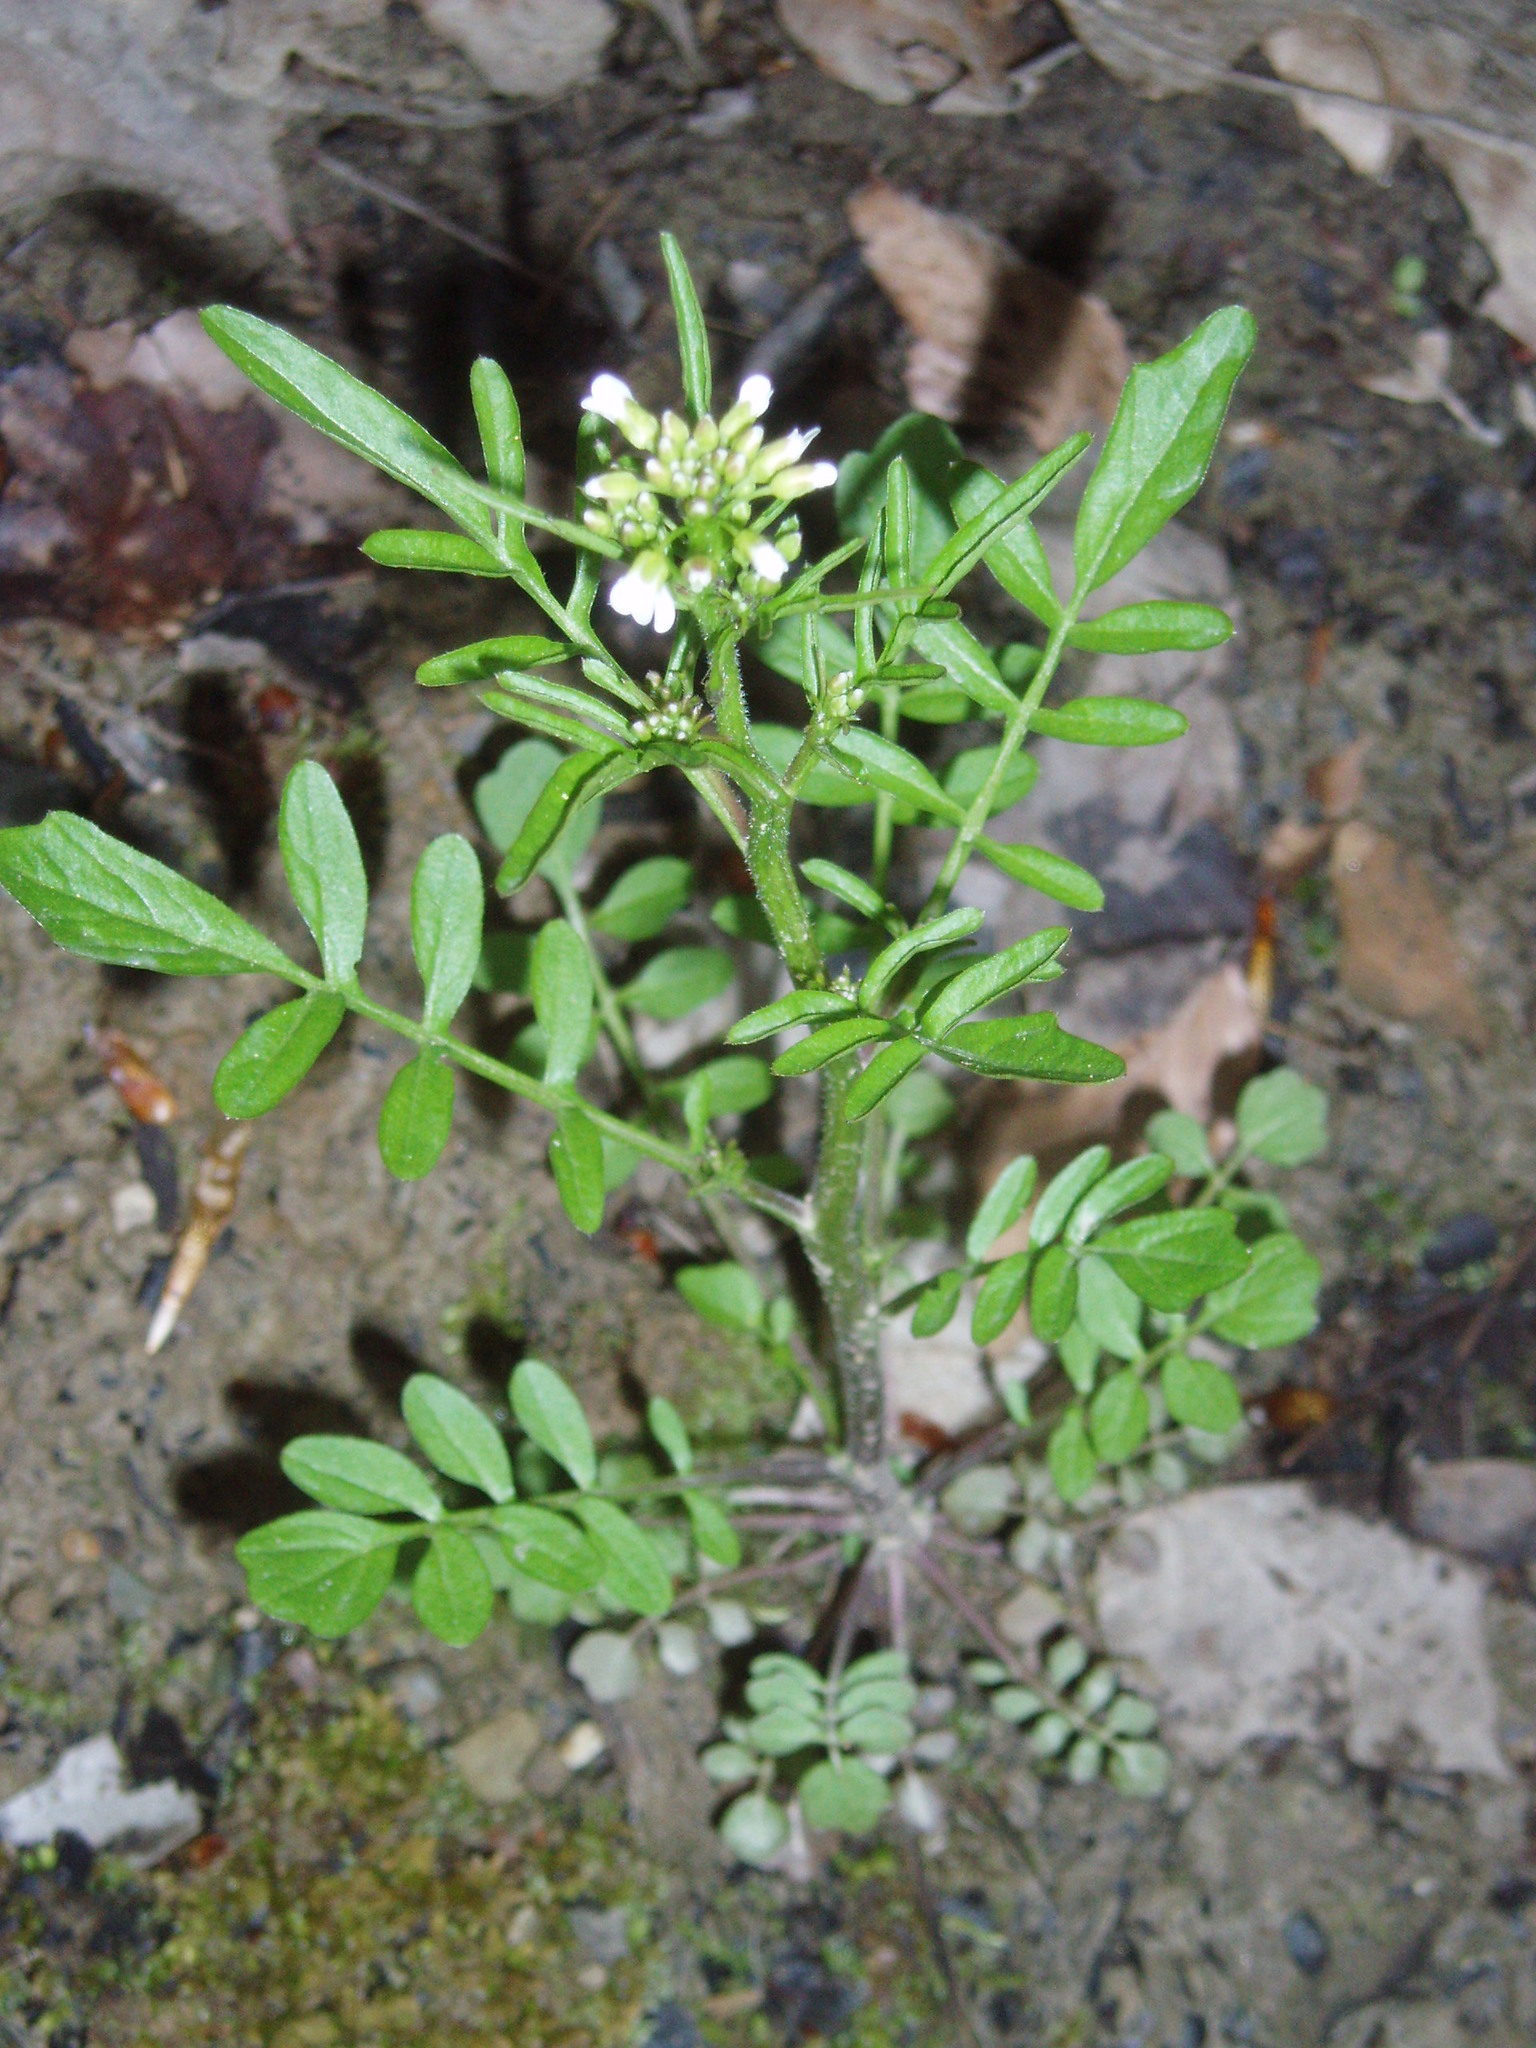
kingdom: Plantae
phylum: Tracheophyta
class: Magnoliopsida
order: Brassicales
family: Brassicaceae
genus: Cardamine
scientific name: Cardamine pensylvanica
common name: Pennsylvania bittercress
